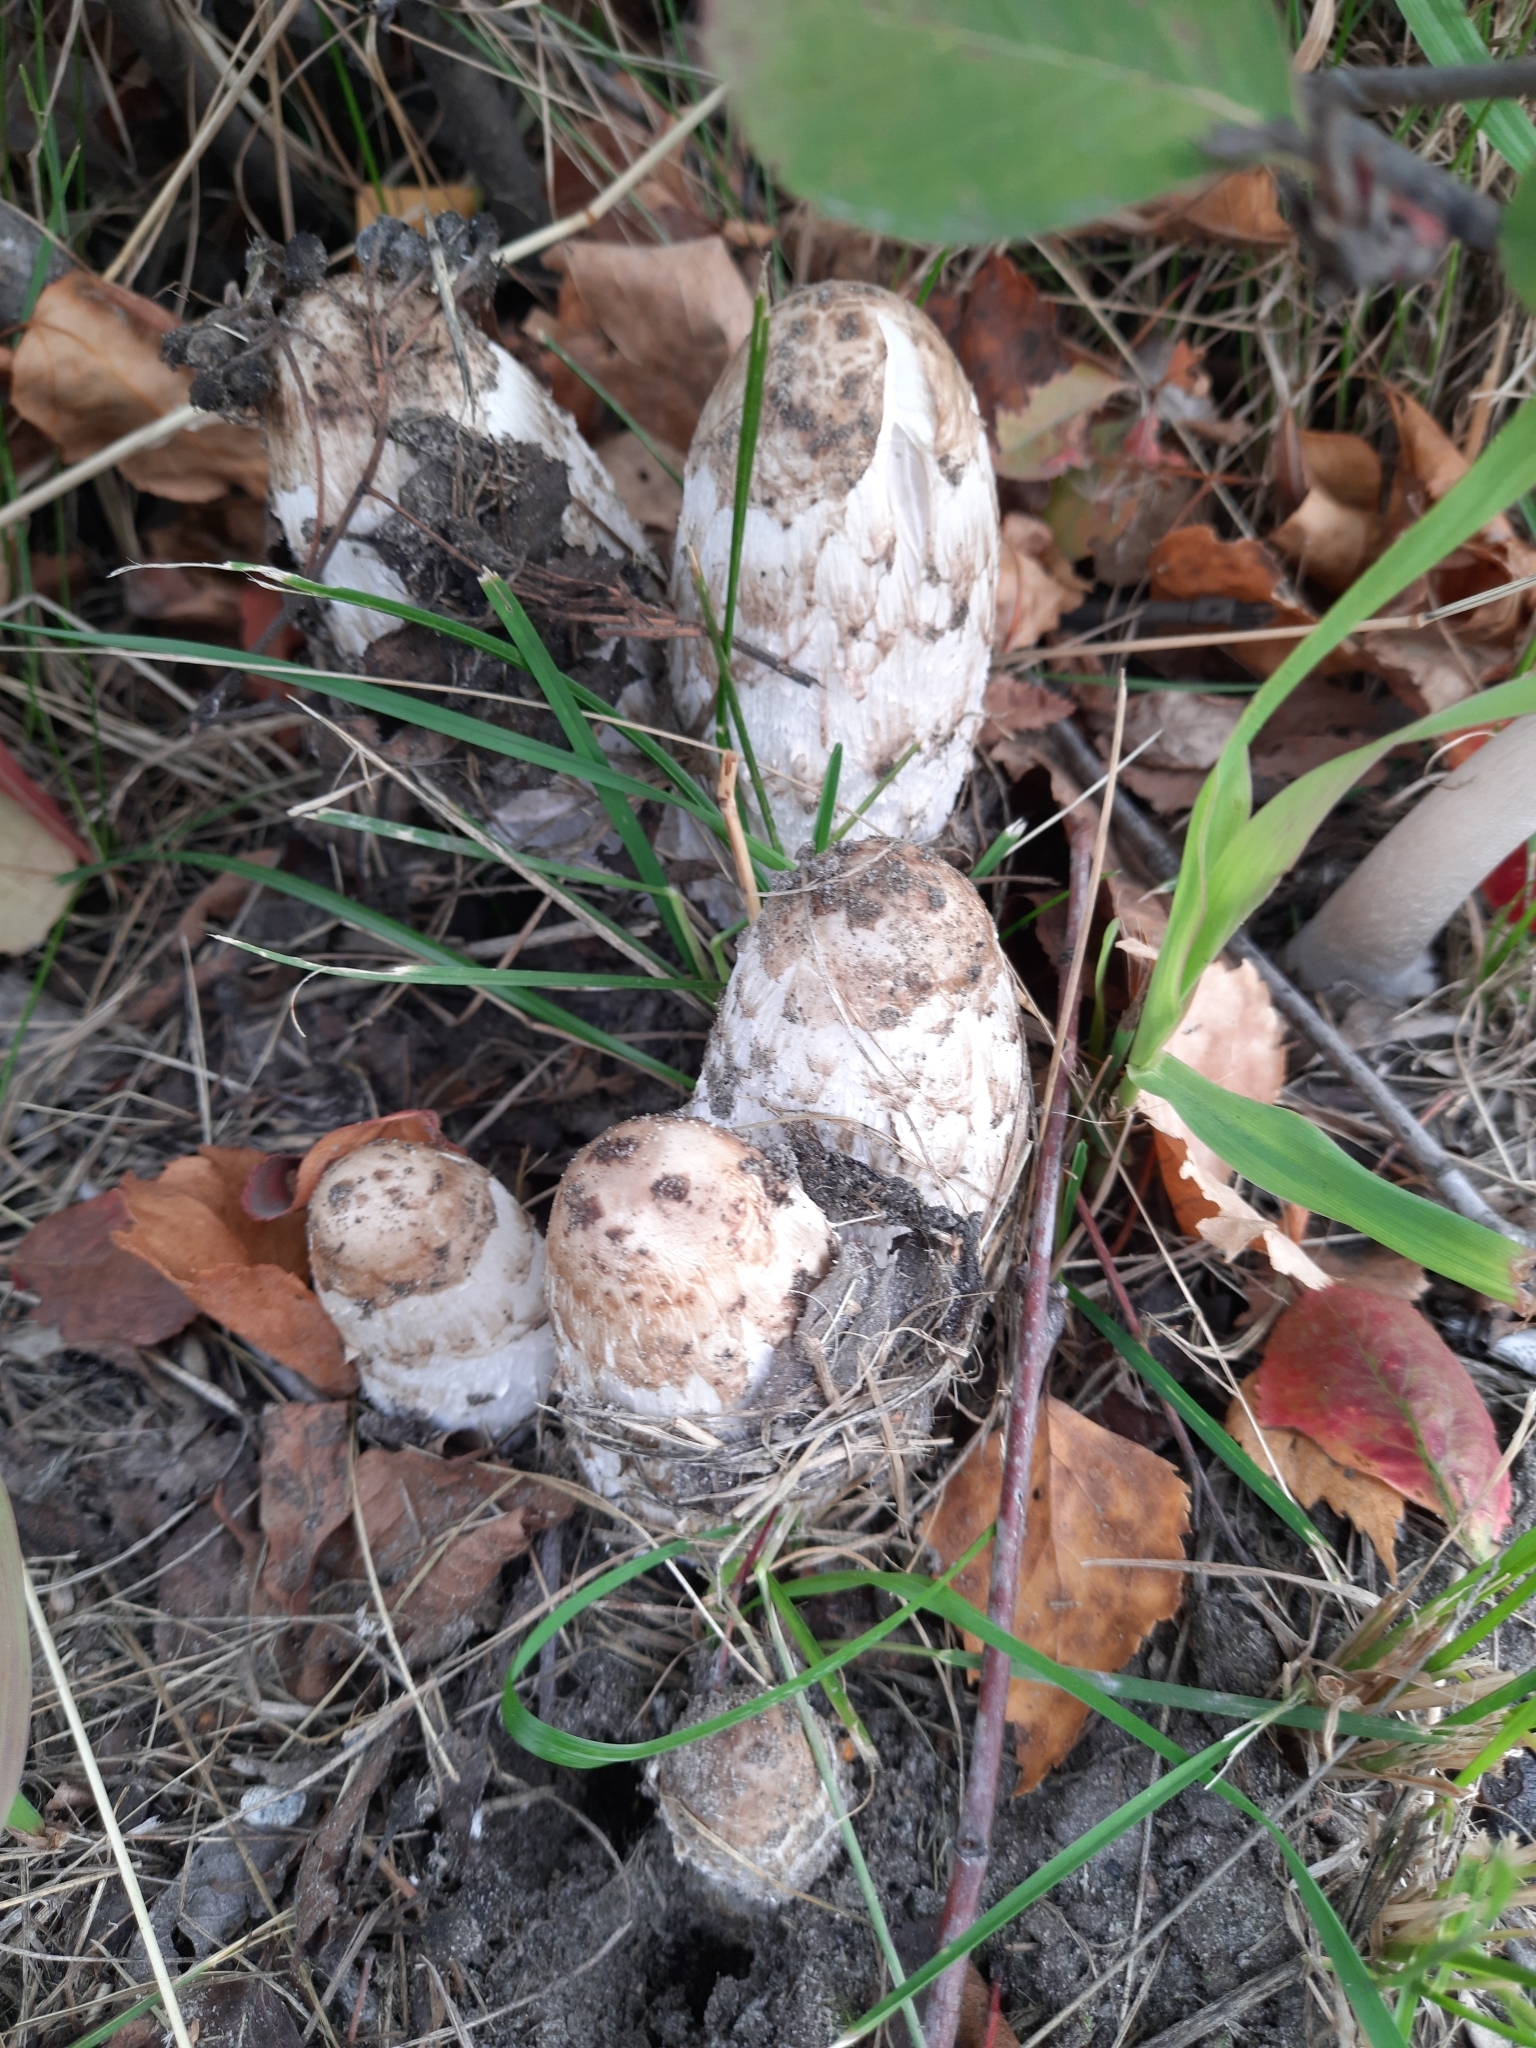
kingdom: Fungi
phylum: Basidiomycota
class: Agaricomycetes
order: Agaricales
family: Agaricaceae
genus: Coprinus
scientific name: Coprinus comatus
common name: Lawyer's wig
